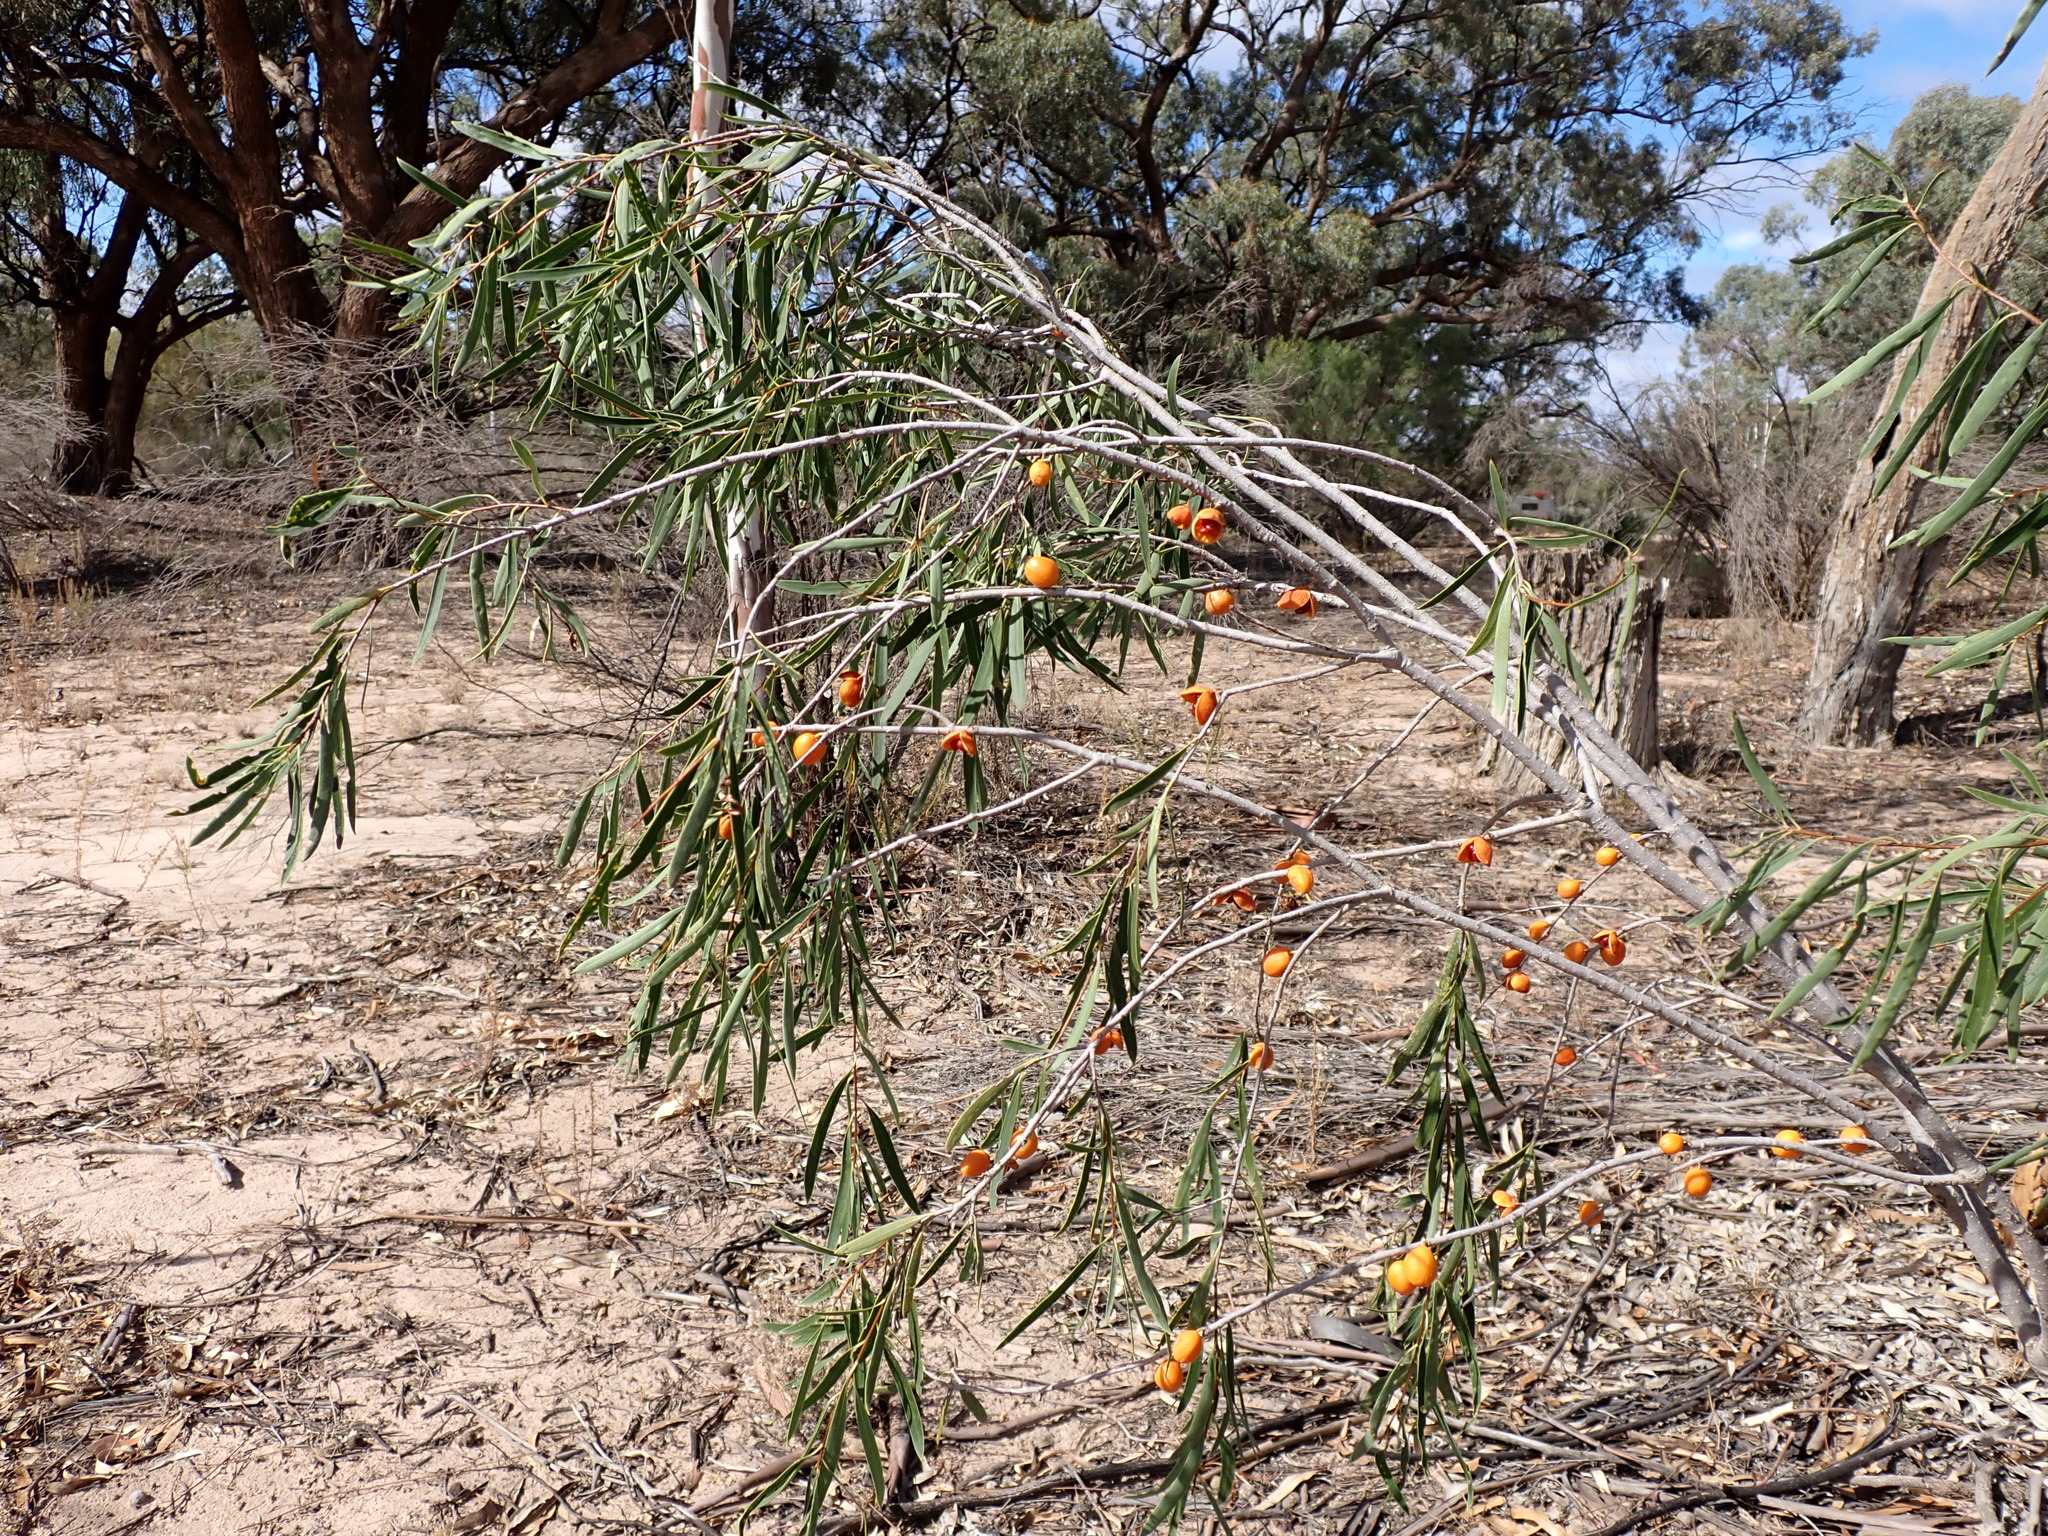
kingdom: Plantae
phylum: Tracheophyta
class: Magnoliopsida
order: Apiales
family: Pittosporaceae
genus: Pittosporum
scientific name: Pittosporum angustifolium
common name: Weeping pittosporum
